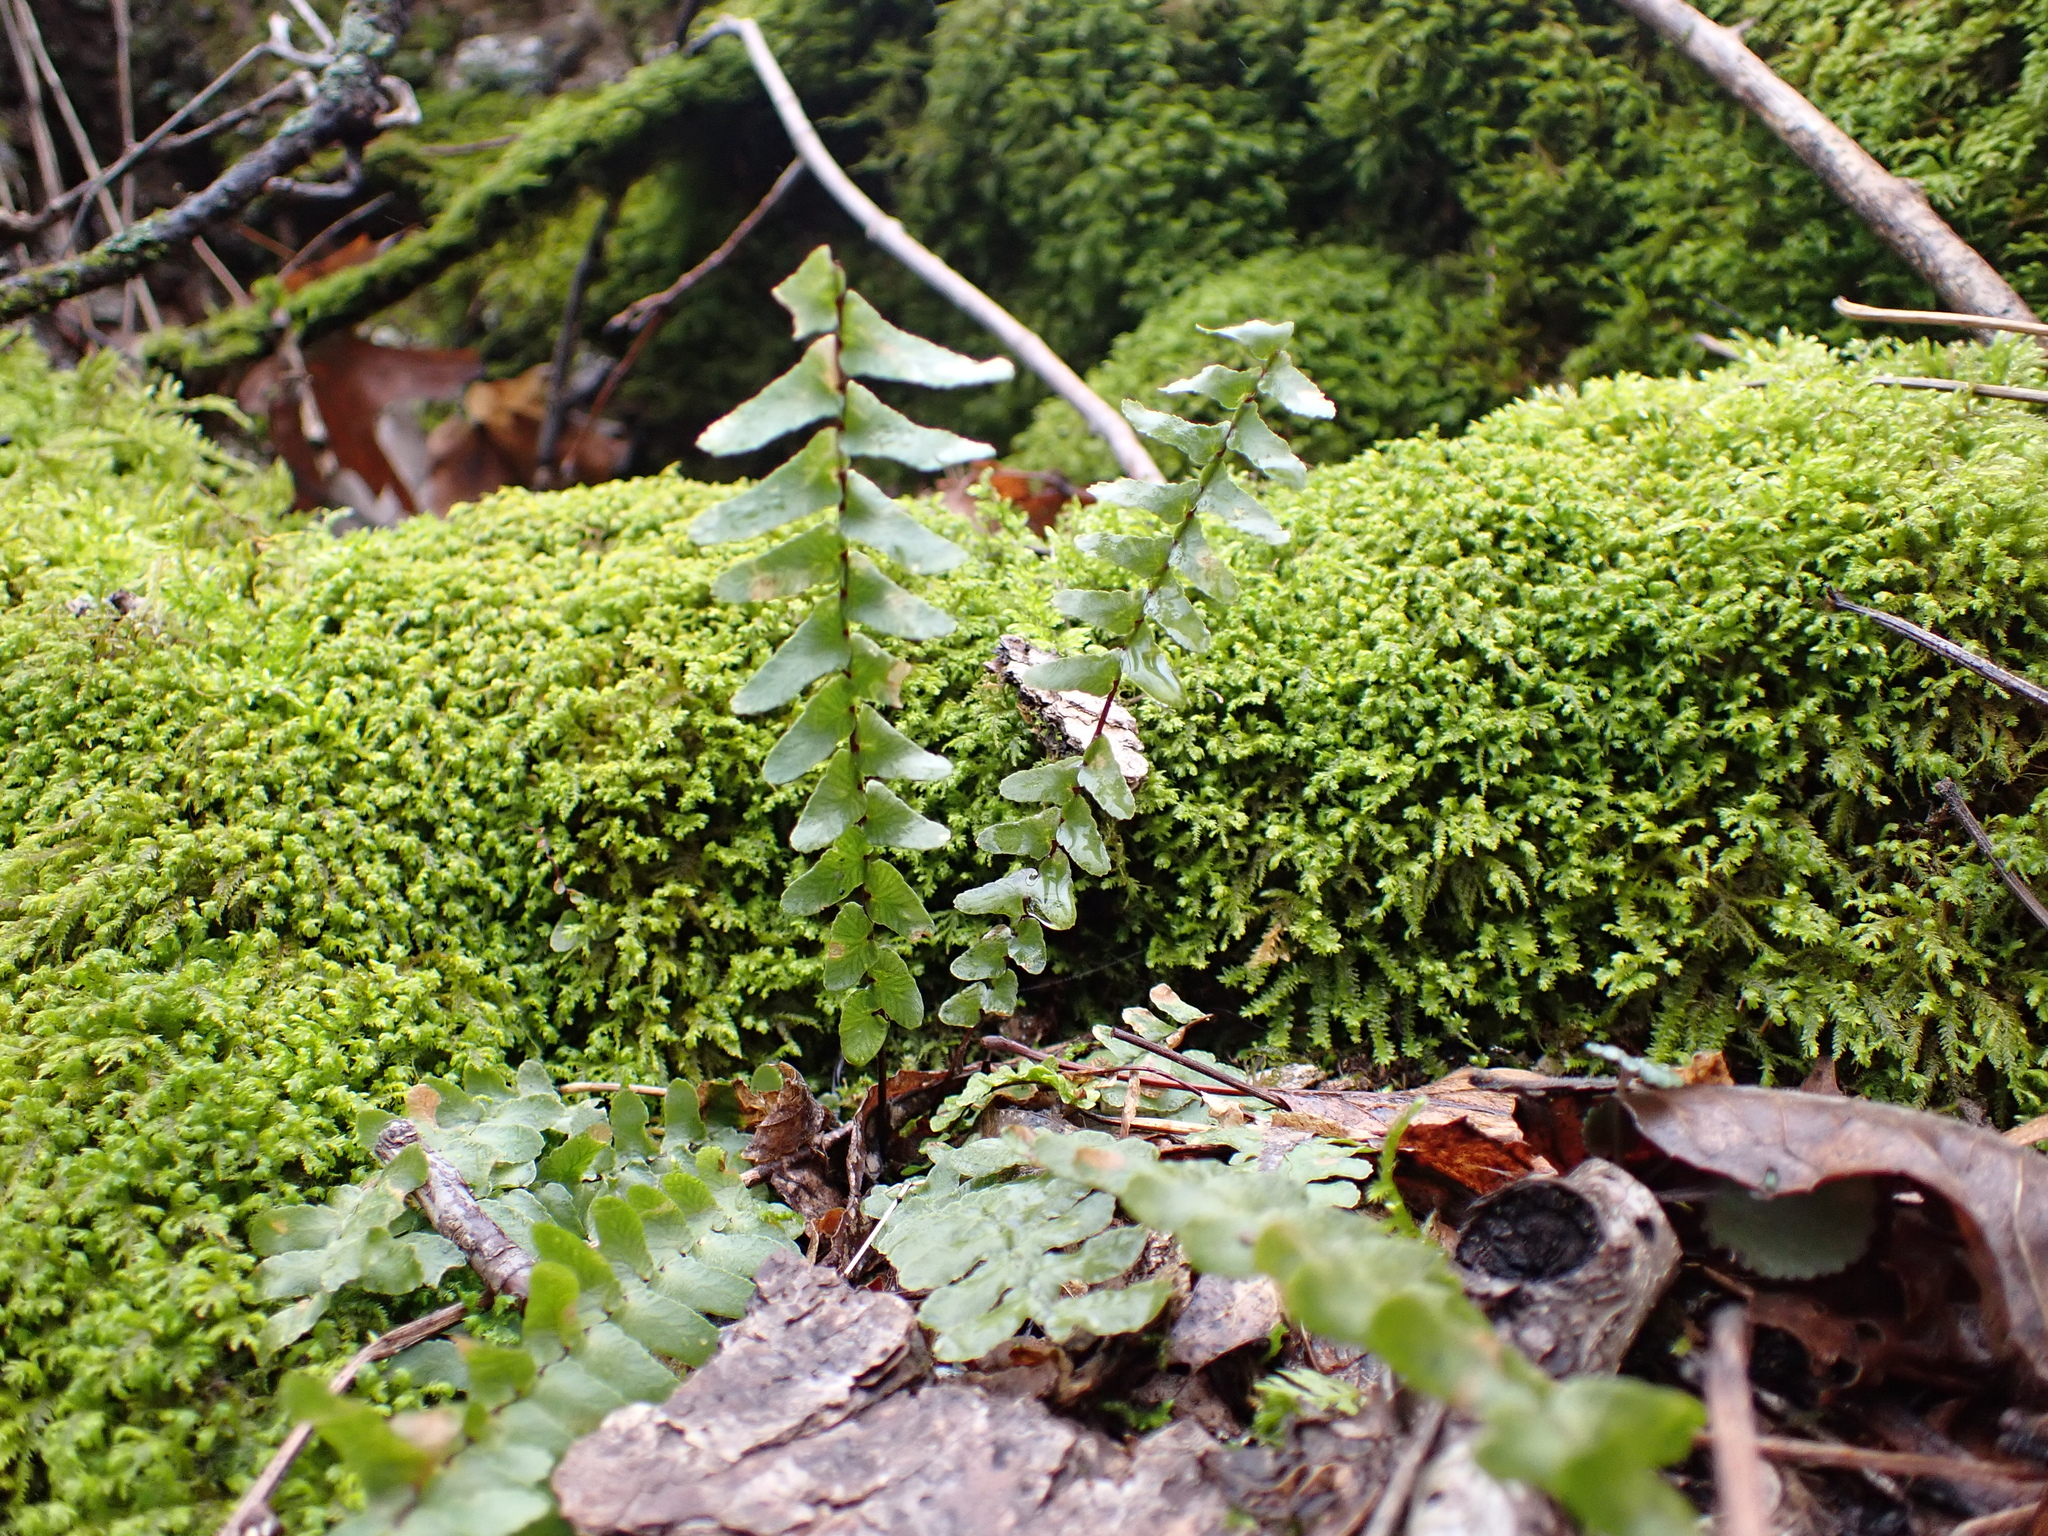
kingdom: Plantae
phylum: Tracheophyta
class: Polypodiopsida
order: Polypodiales
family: Aspleniaceae
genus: Asplenium
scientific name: Asplenium platyneuron
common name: Ebony spleenwort
